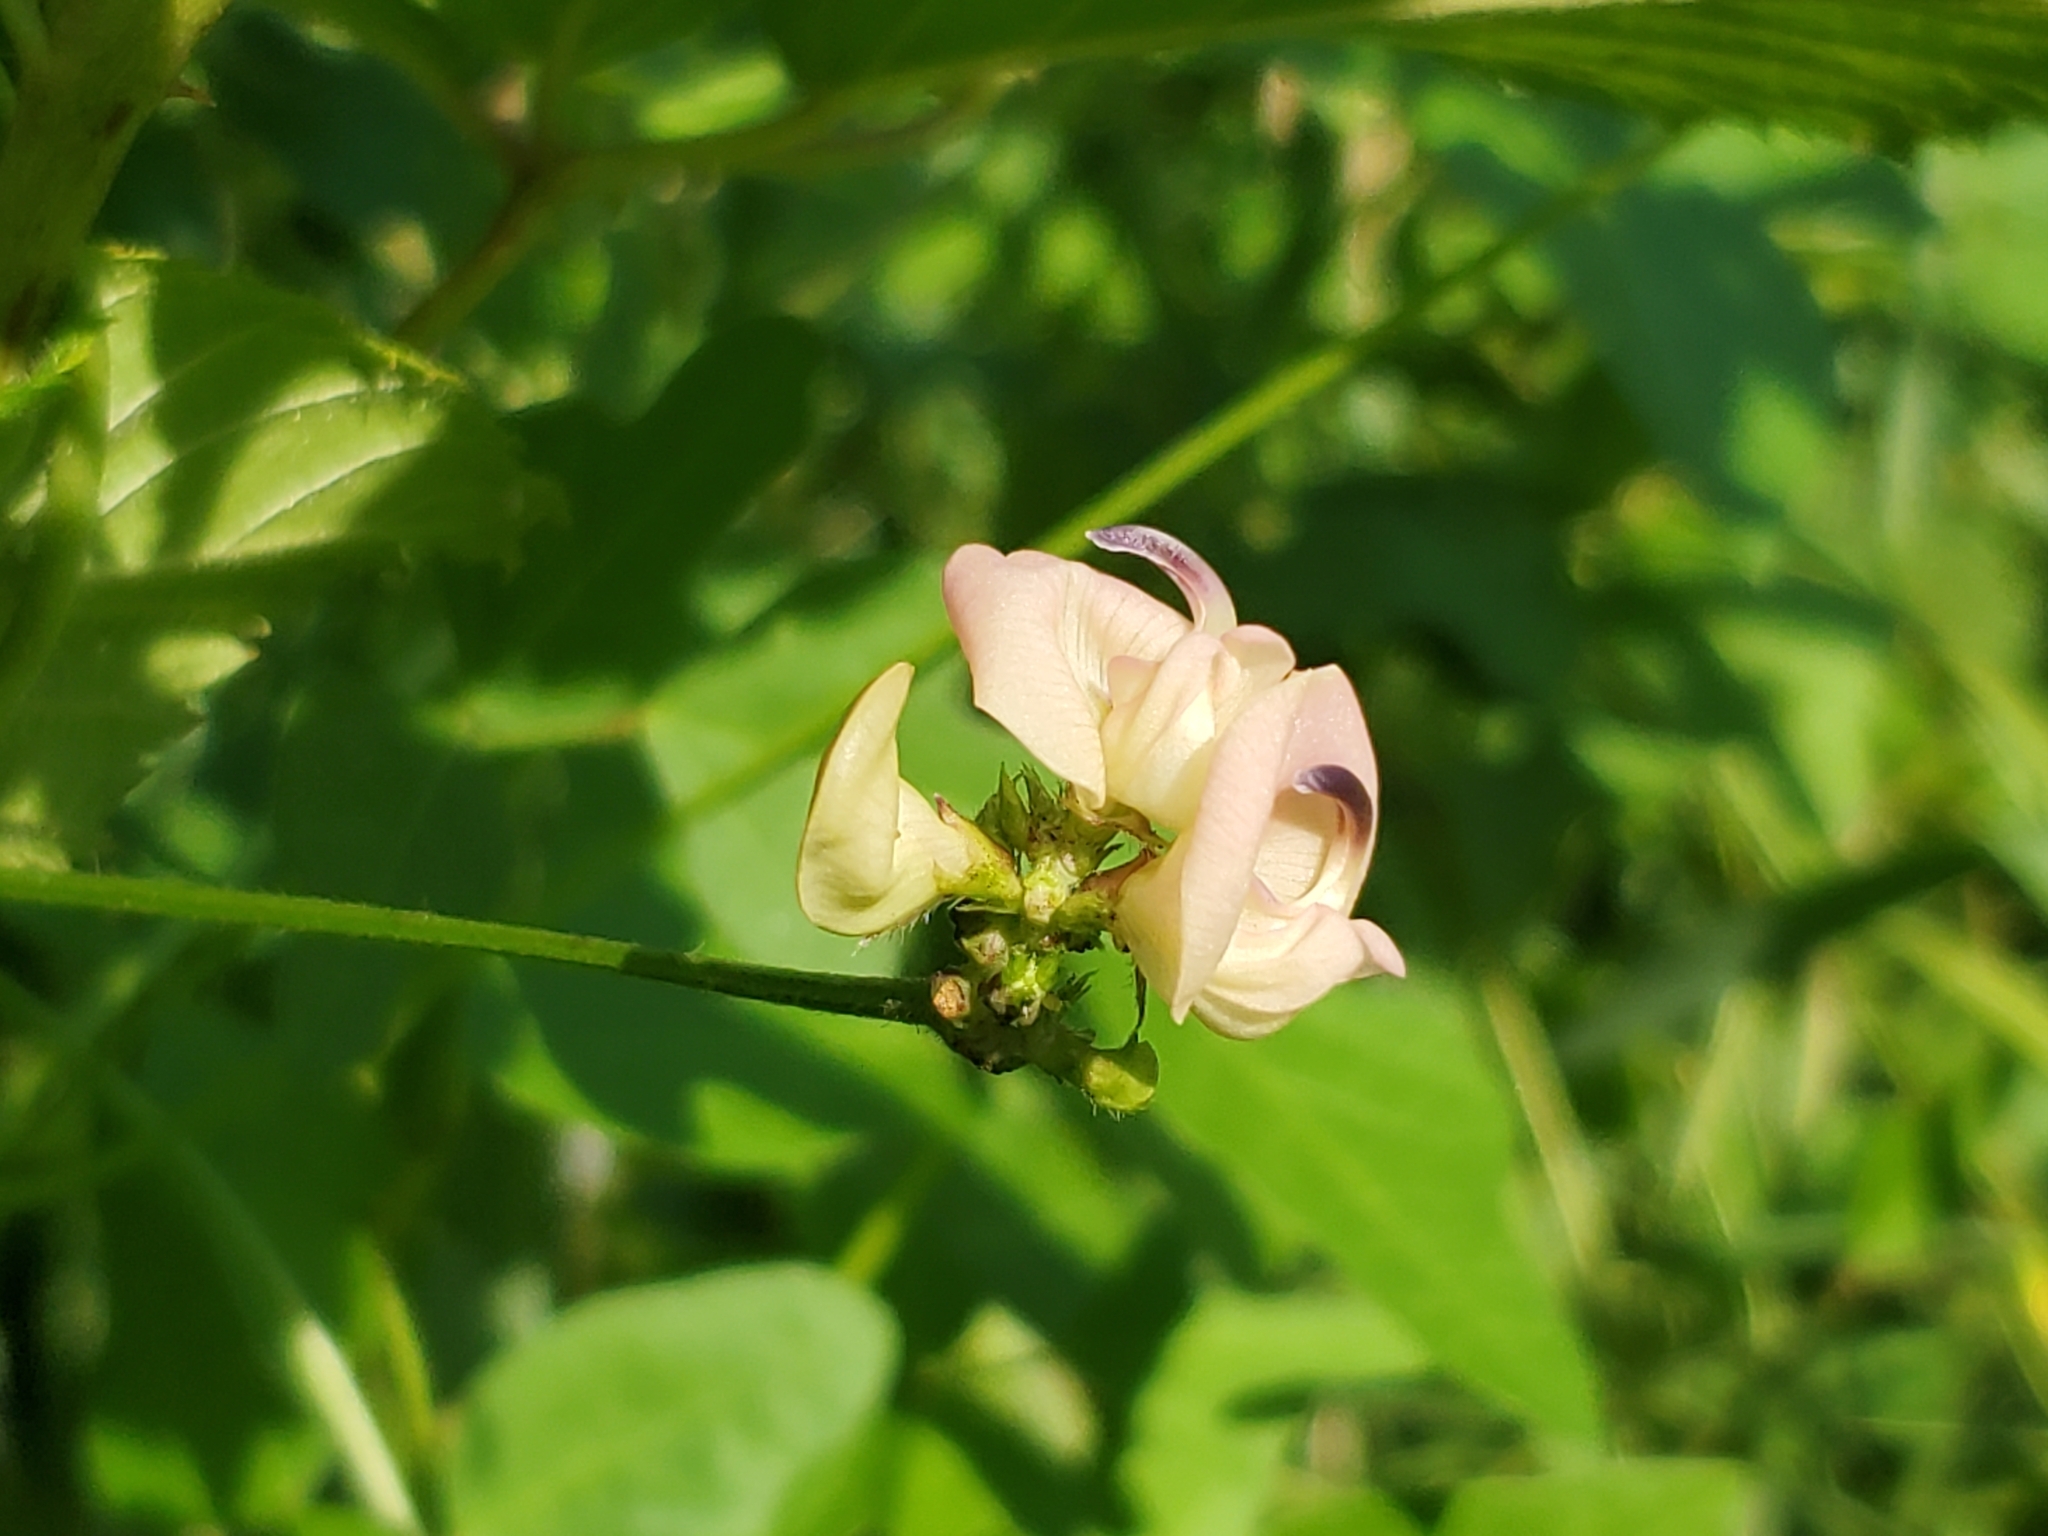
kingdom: Plantae
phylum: Tracheophyta
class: Magnoliopsida
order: Fabales
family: Fabaceae
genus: Strophostyles
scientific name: Strophostyles helvola
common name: Trailing wild bean
